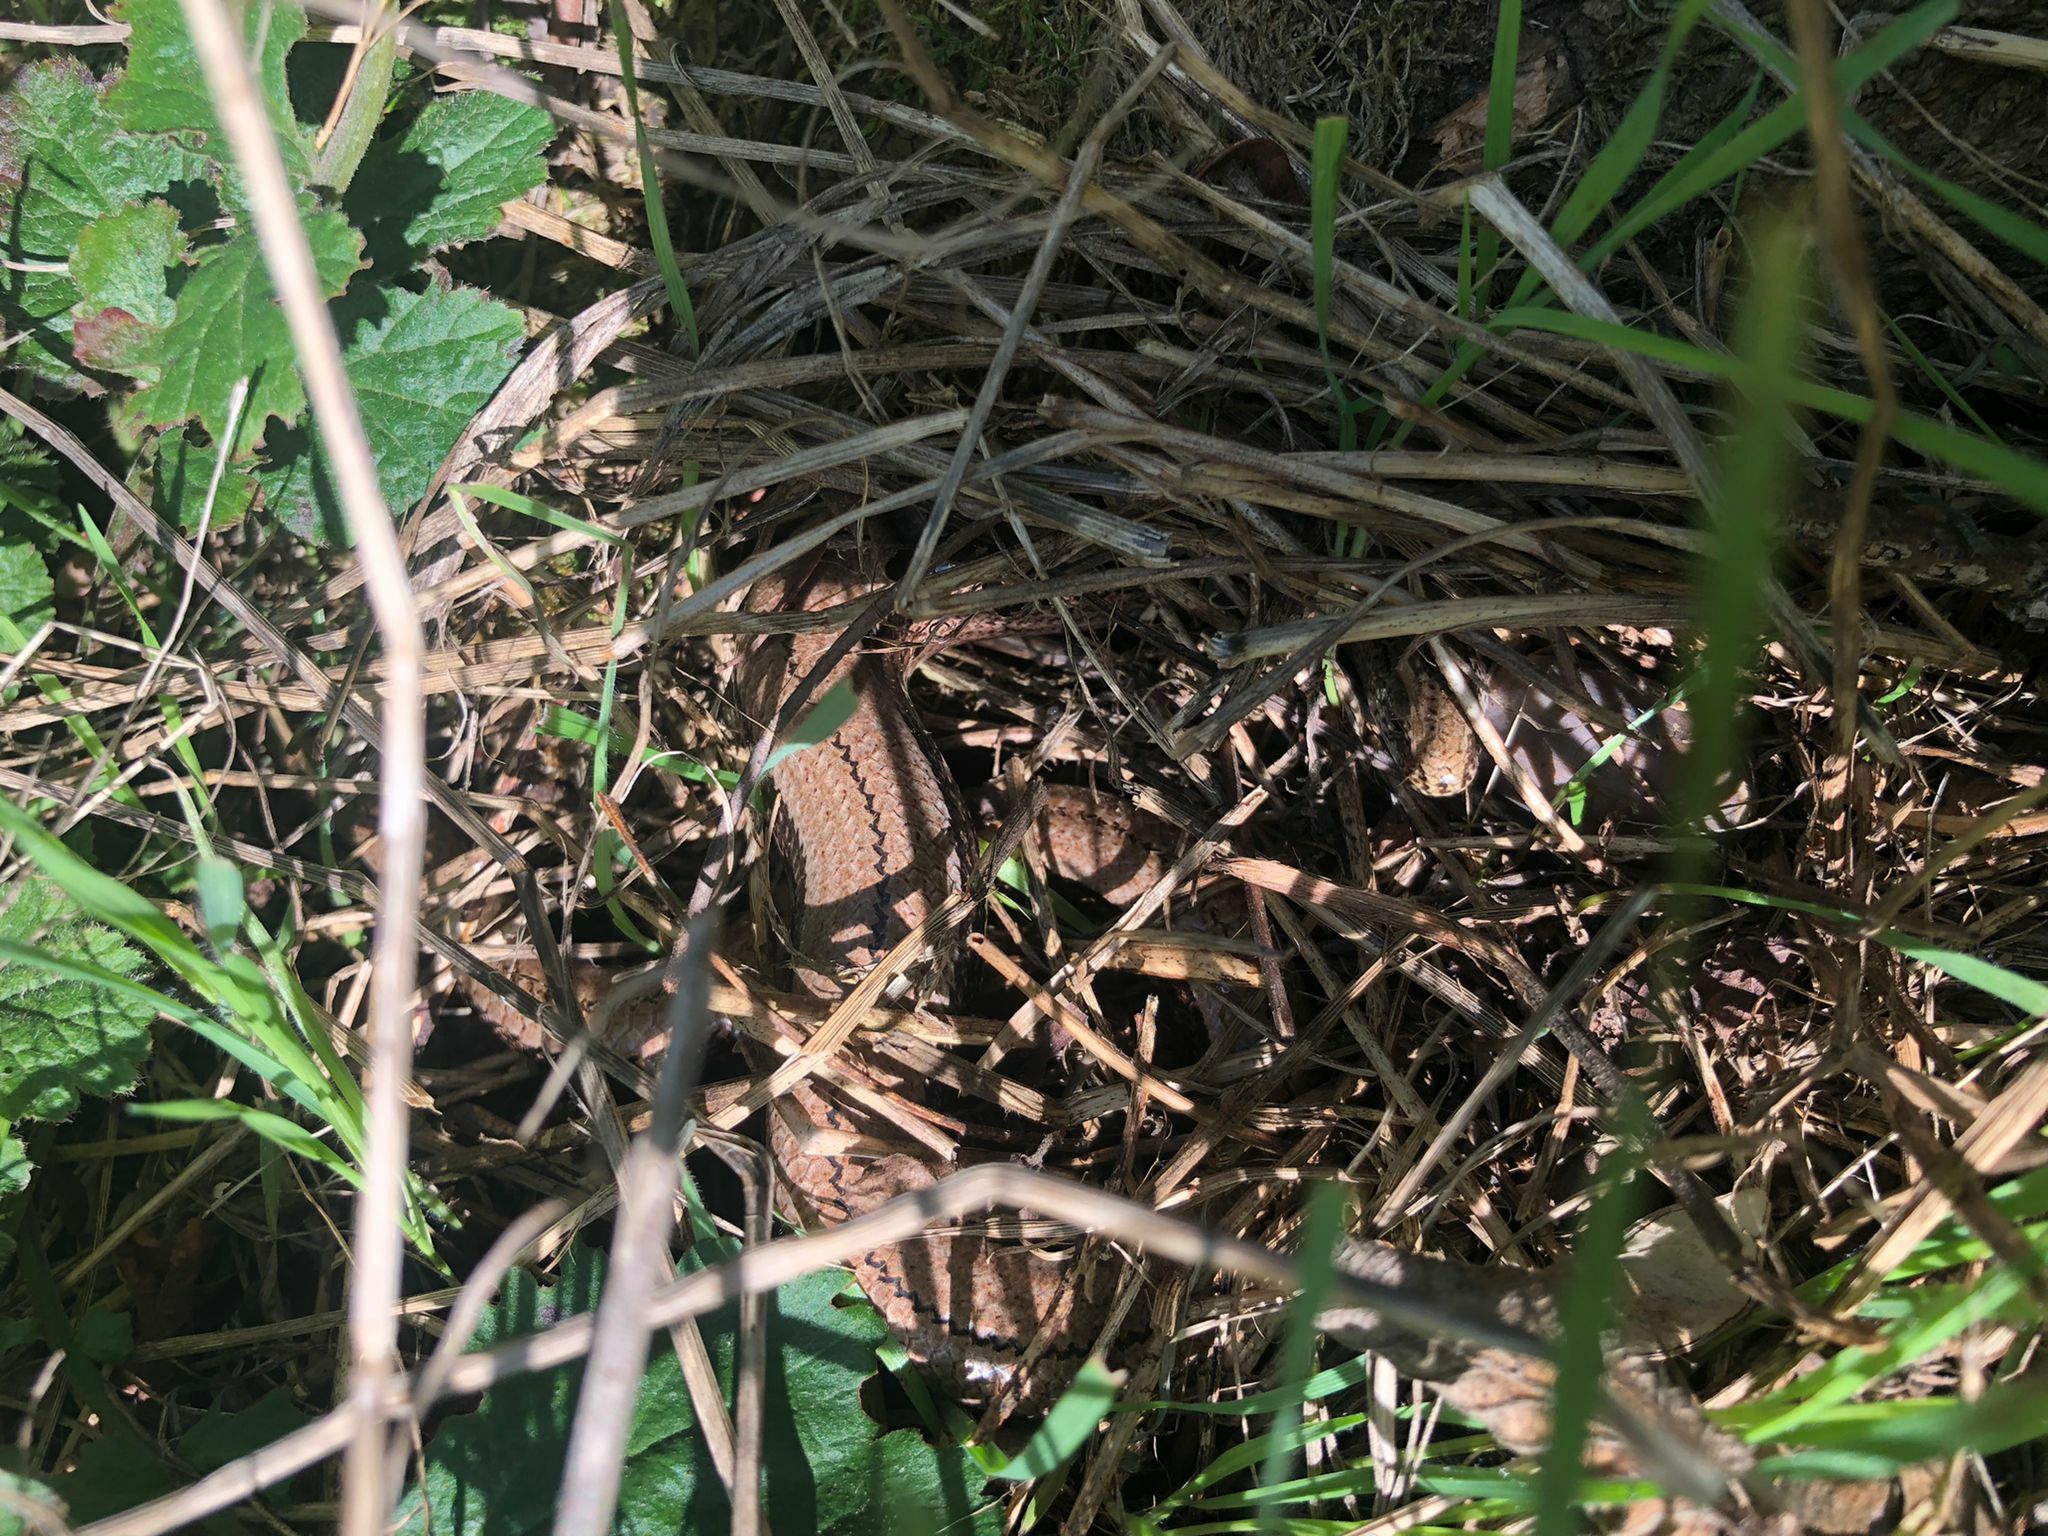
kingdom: Animalia
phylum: Chordata
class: Squamata
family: Anguidae
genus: Anguis
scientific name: Anguis fragilis
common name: Slow worm
